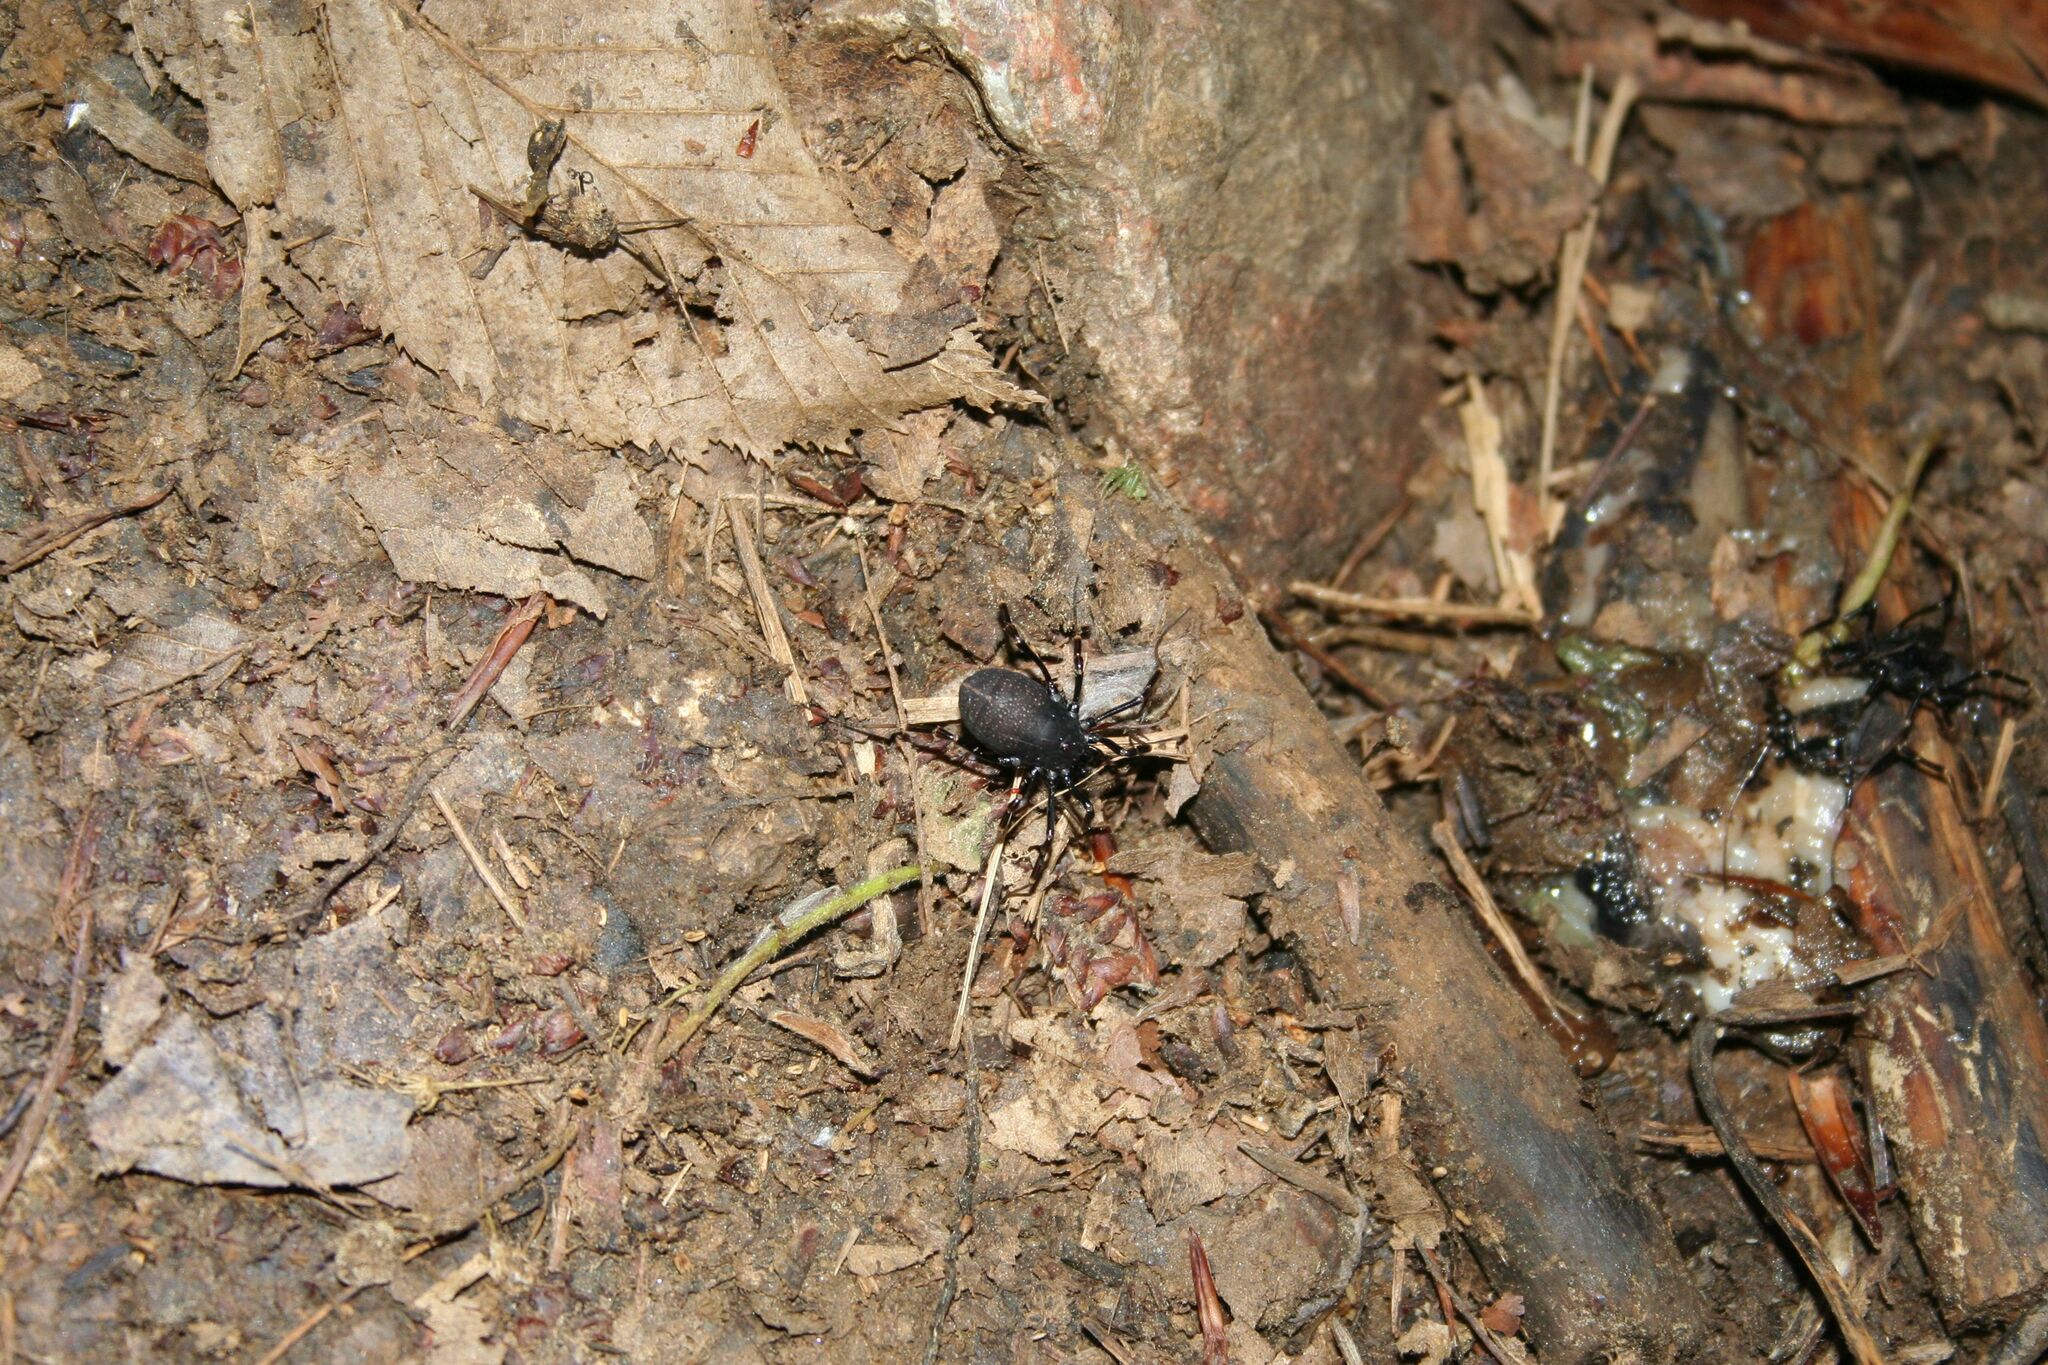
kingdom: Animalia
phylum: Arthropoda
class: Arachnida
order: Opiliones
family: Phalangiidae
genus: Egaenus
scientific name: Egaenus convexus
